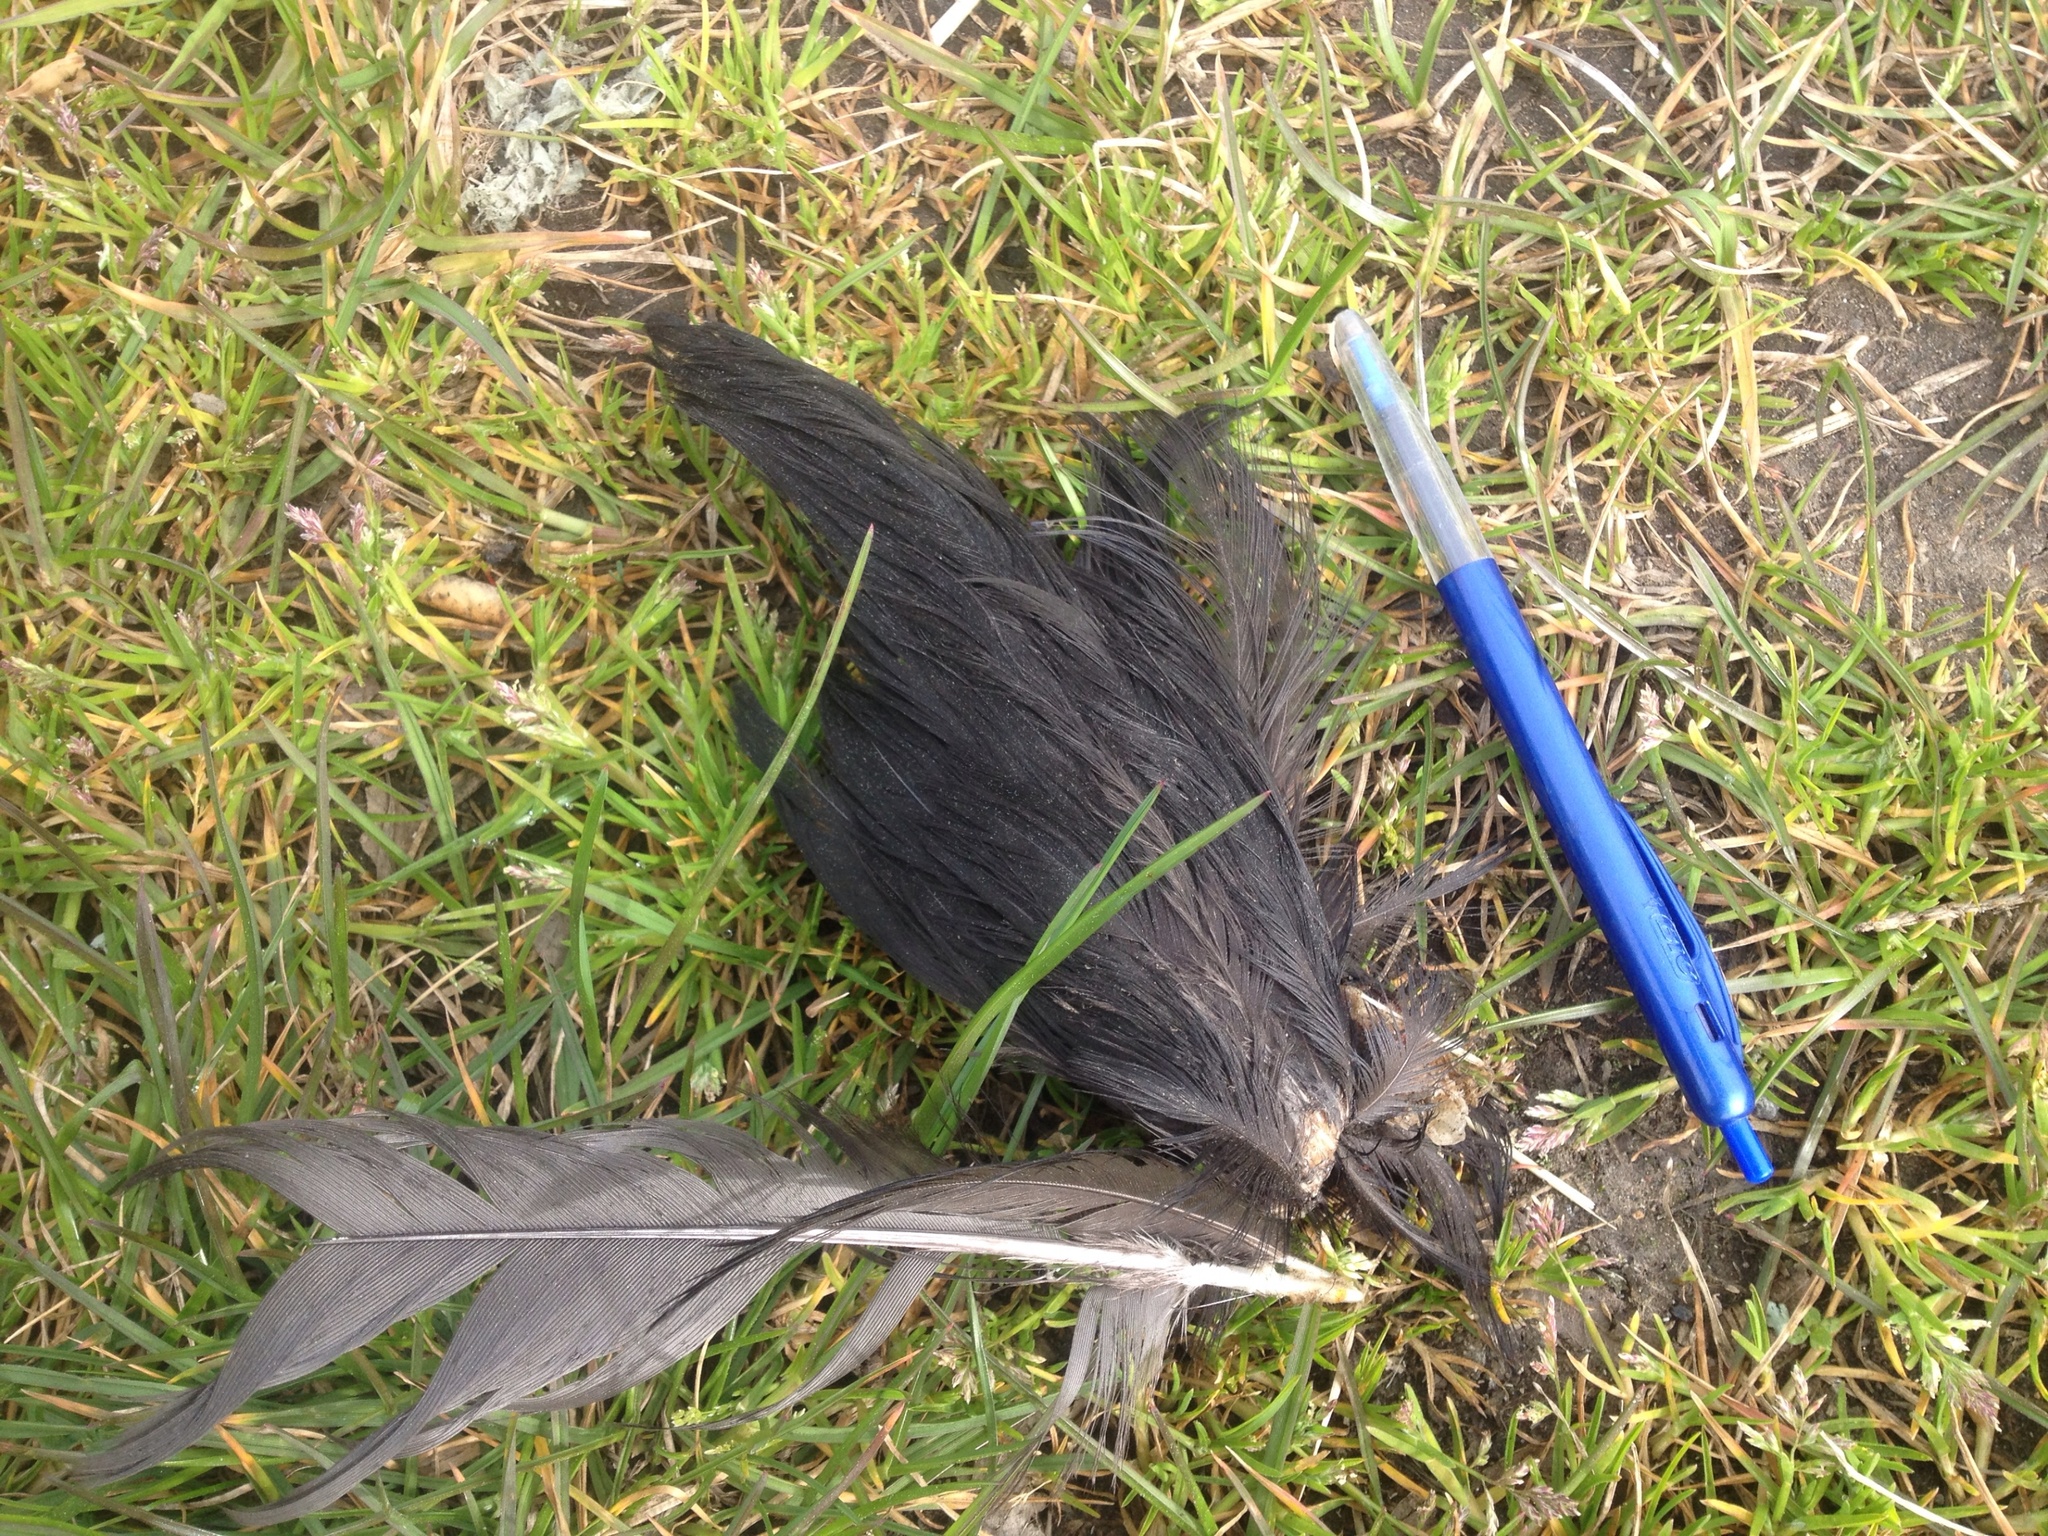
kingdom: Animalia
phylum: Chordata
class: Aves
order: Gruiformes
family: Rallidae
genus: Porphyrio
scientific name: Porphyrio melanotus
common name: Australasian swamphen
